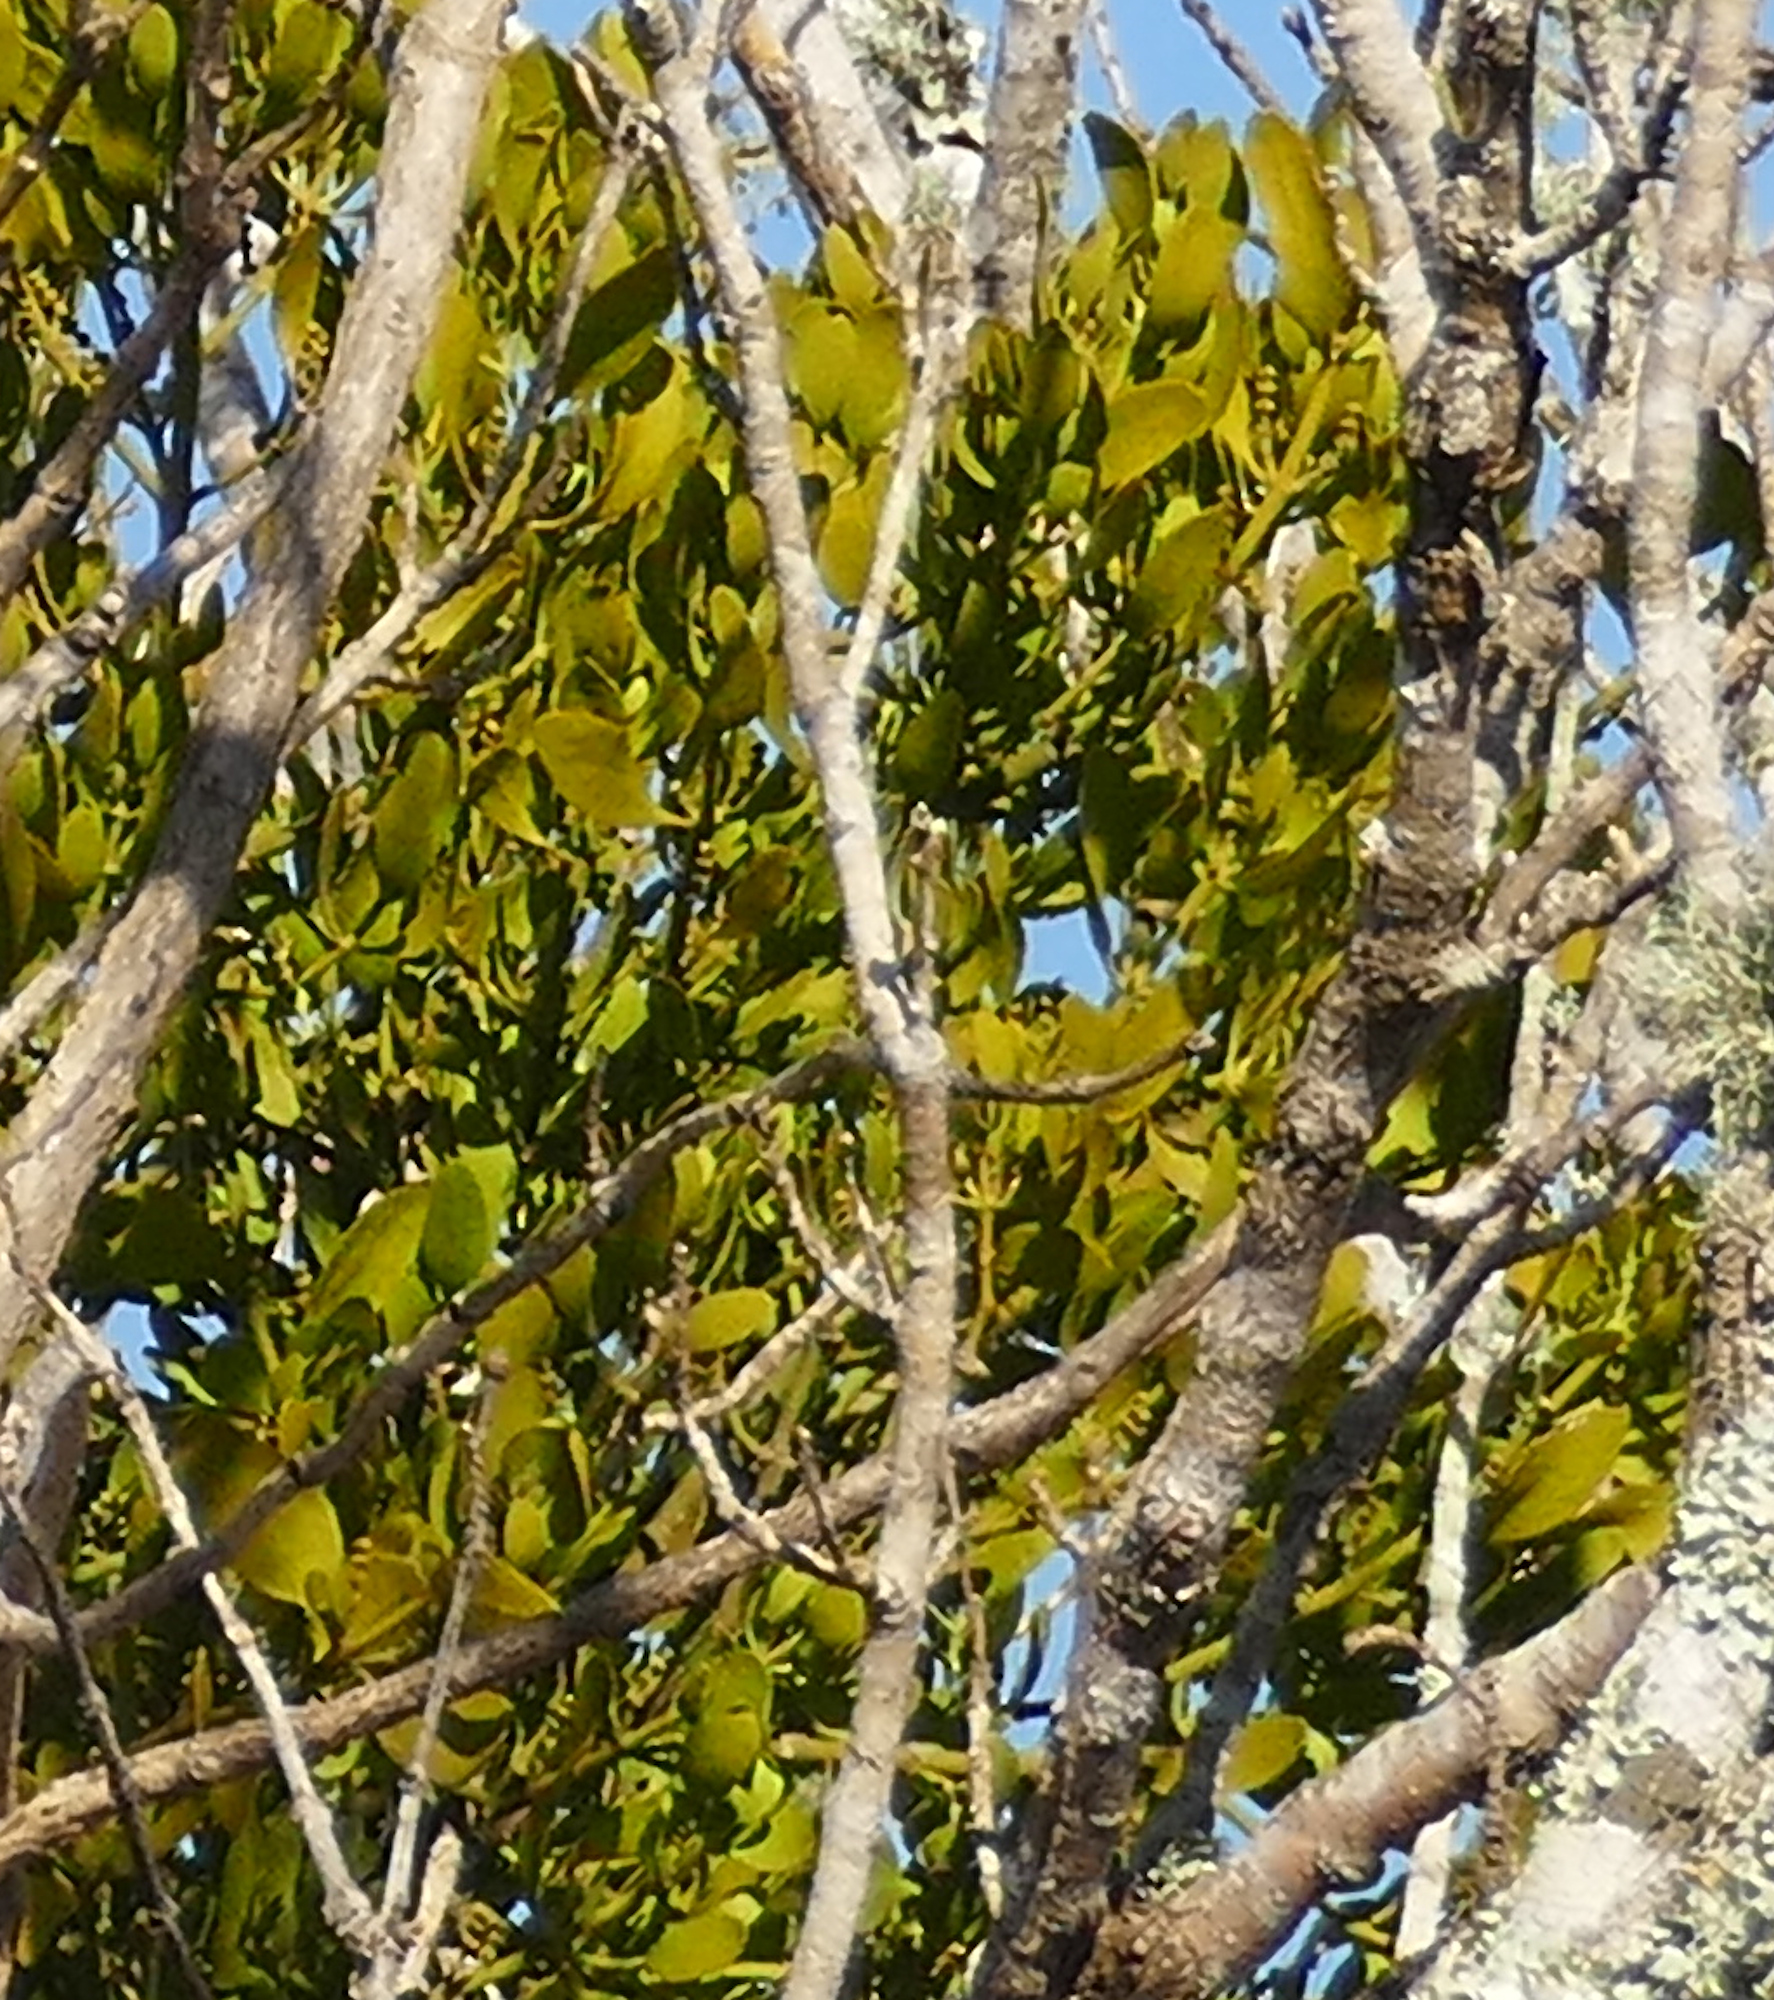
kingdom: Plantae
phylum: Tracheophyta
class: Magnoliopsida
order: Santalales
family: Viscaceae
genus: Phoradendron
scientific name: Phoradendron leucarpum
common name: Pacific mistletoe
